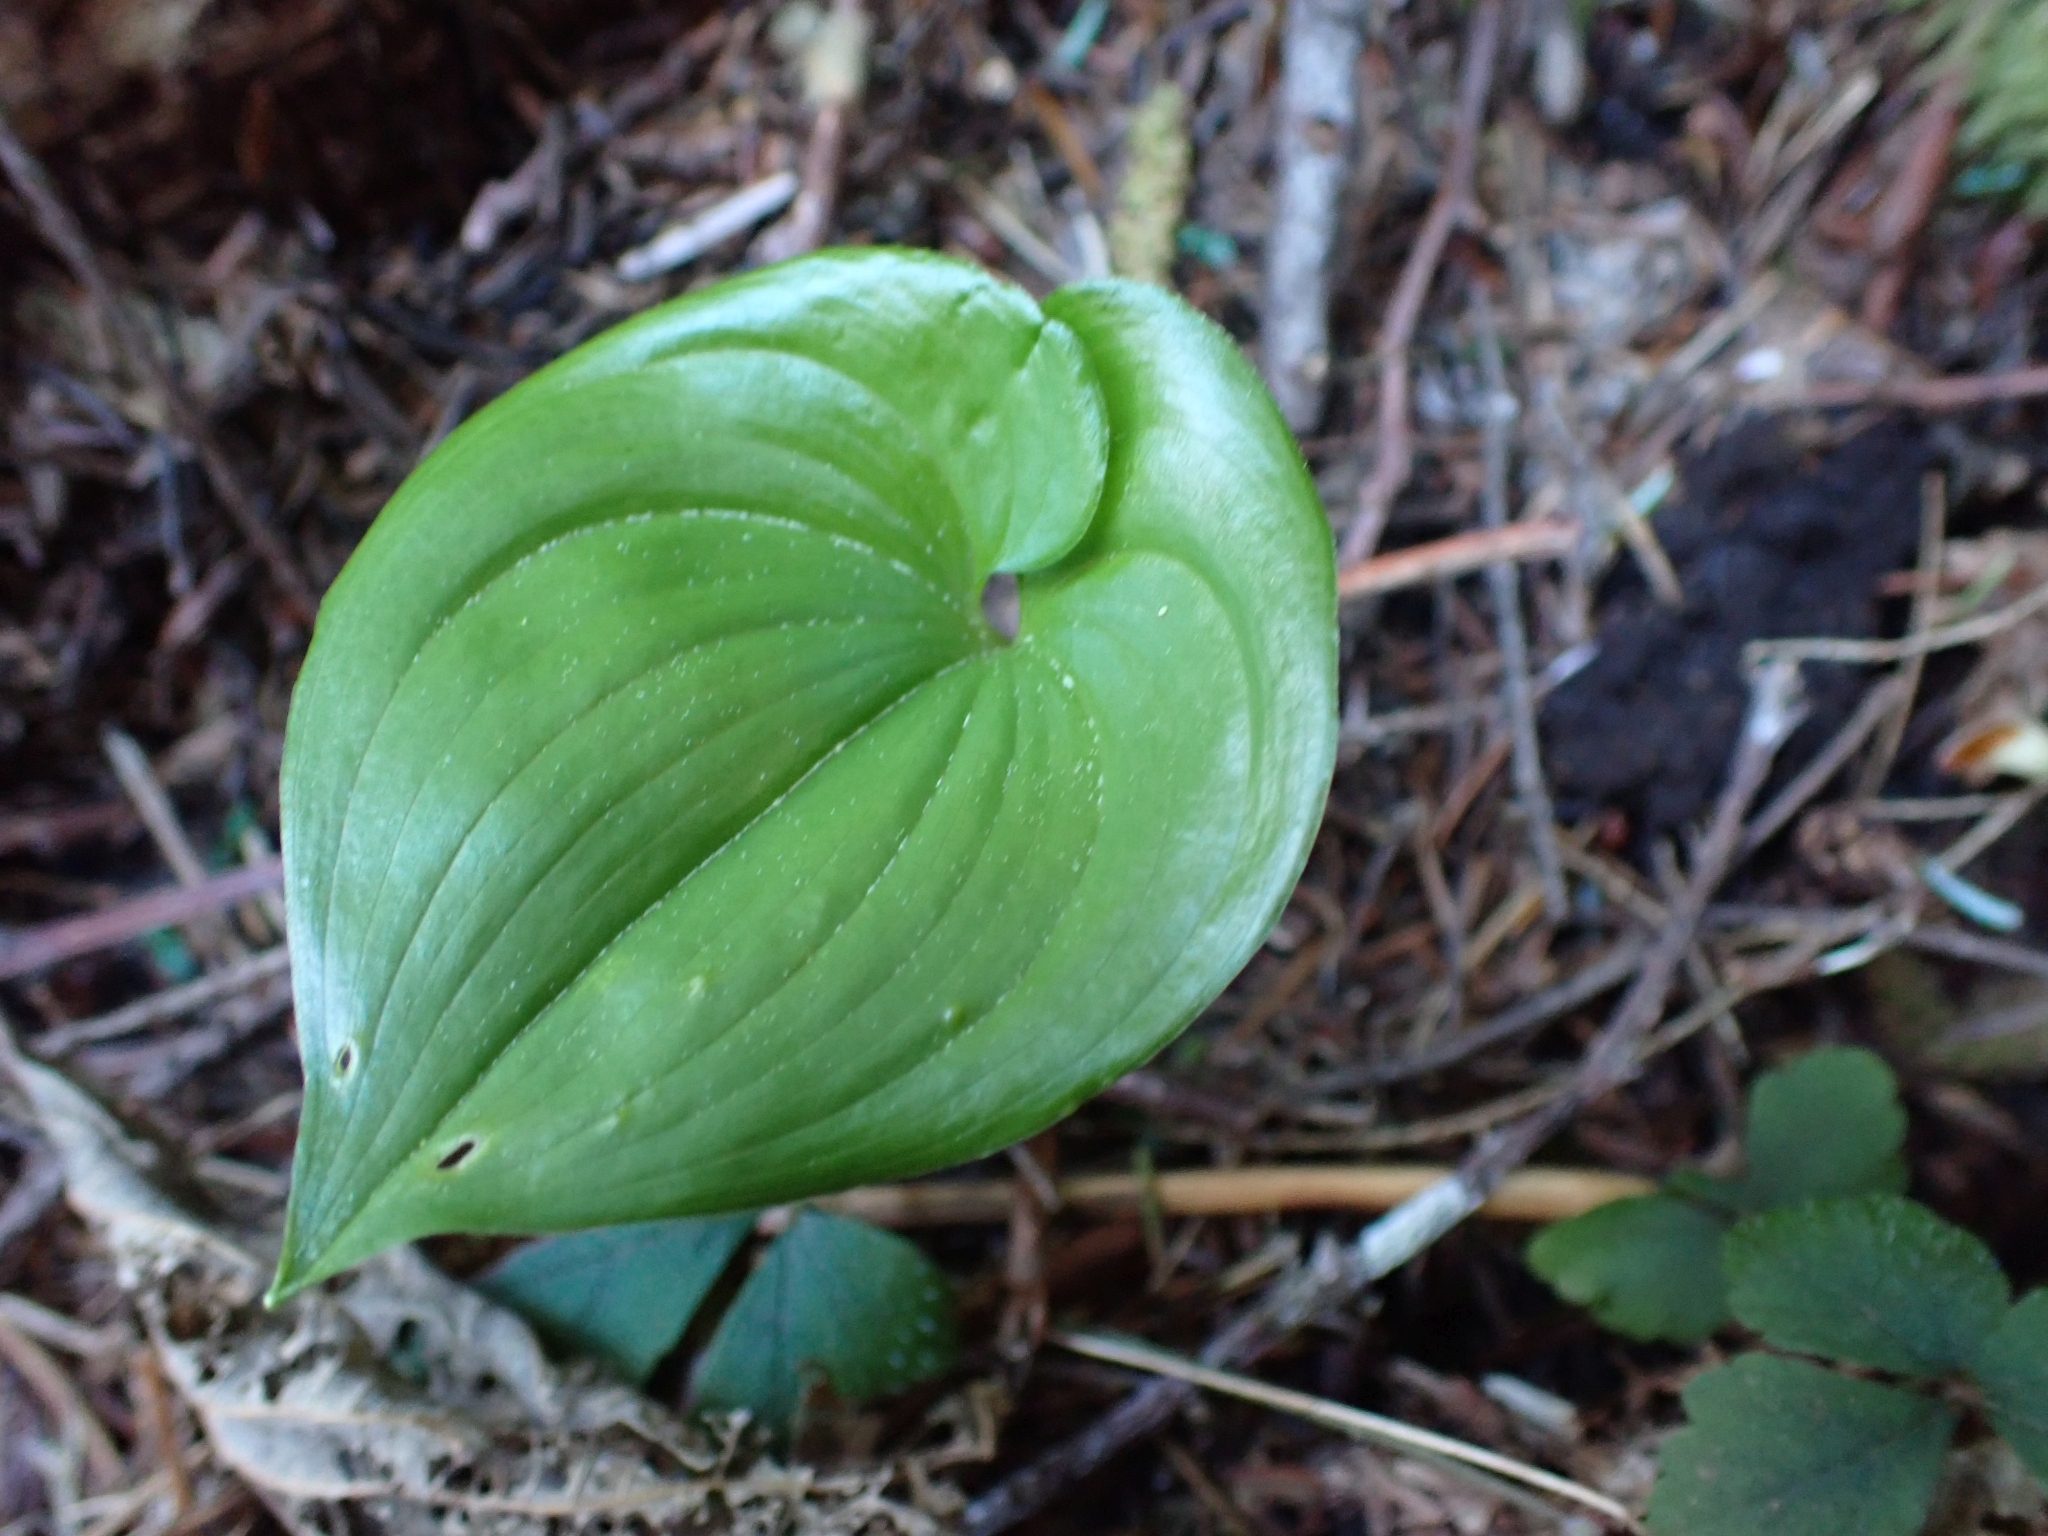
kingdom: Plantae
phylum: Tracheophyta
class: Liliopsida
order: Asparagales
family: Asparagaceae
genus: Maianthemum
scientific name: Maianthemum dilatatum
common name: False lily-of-the-valley
